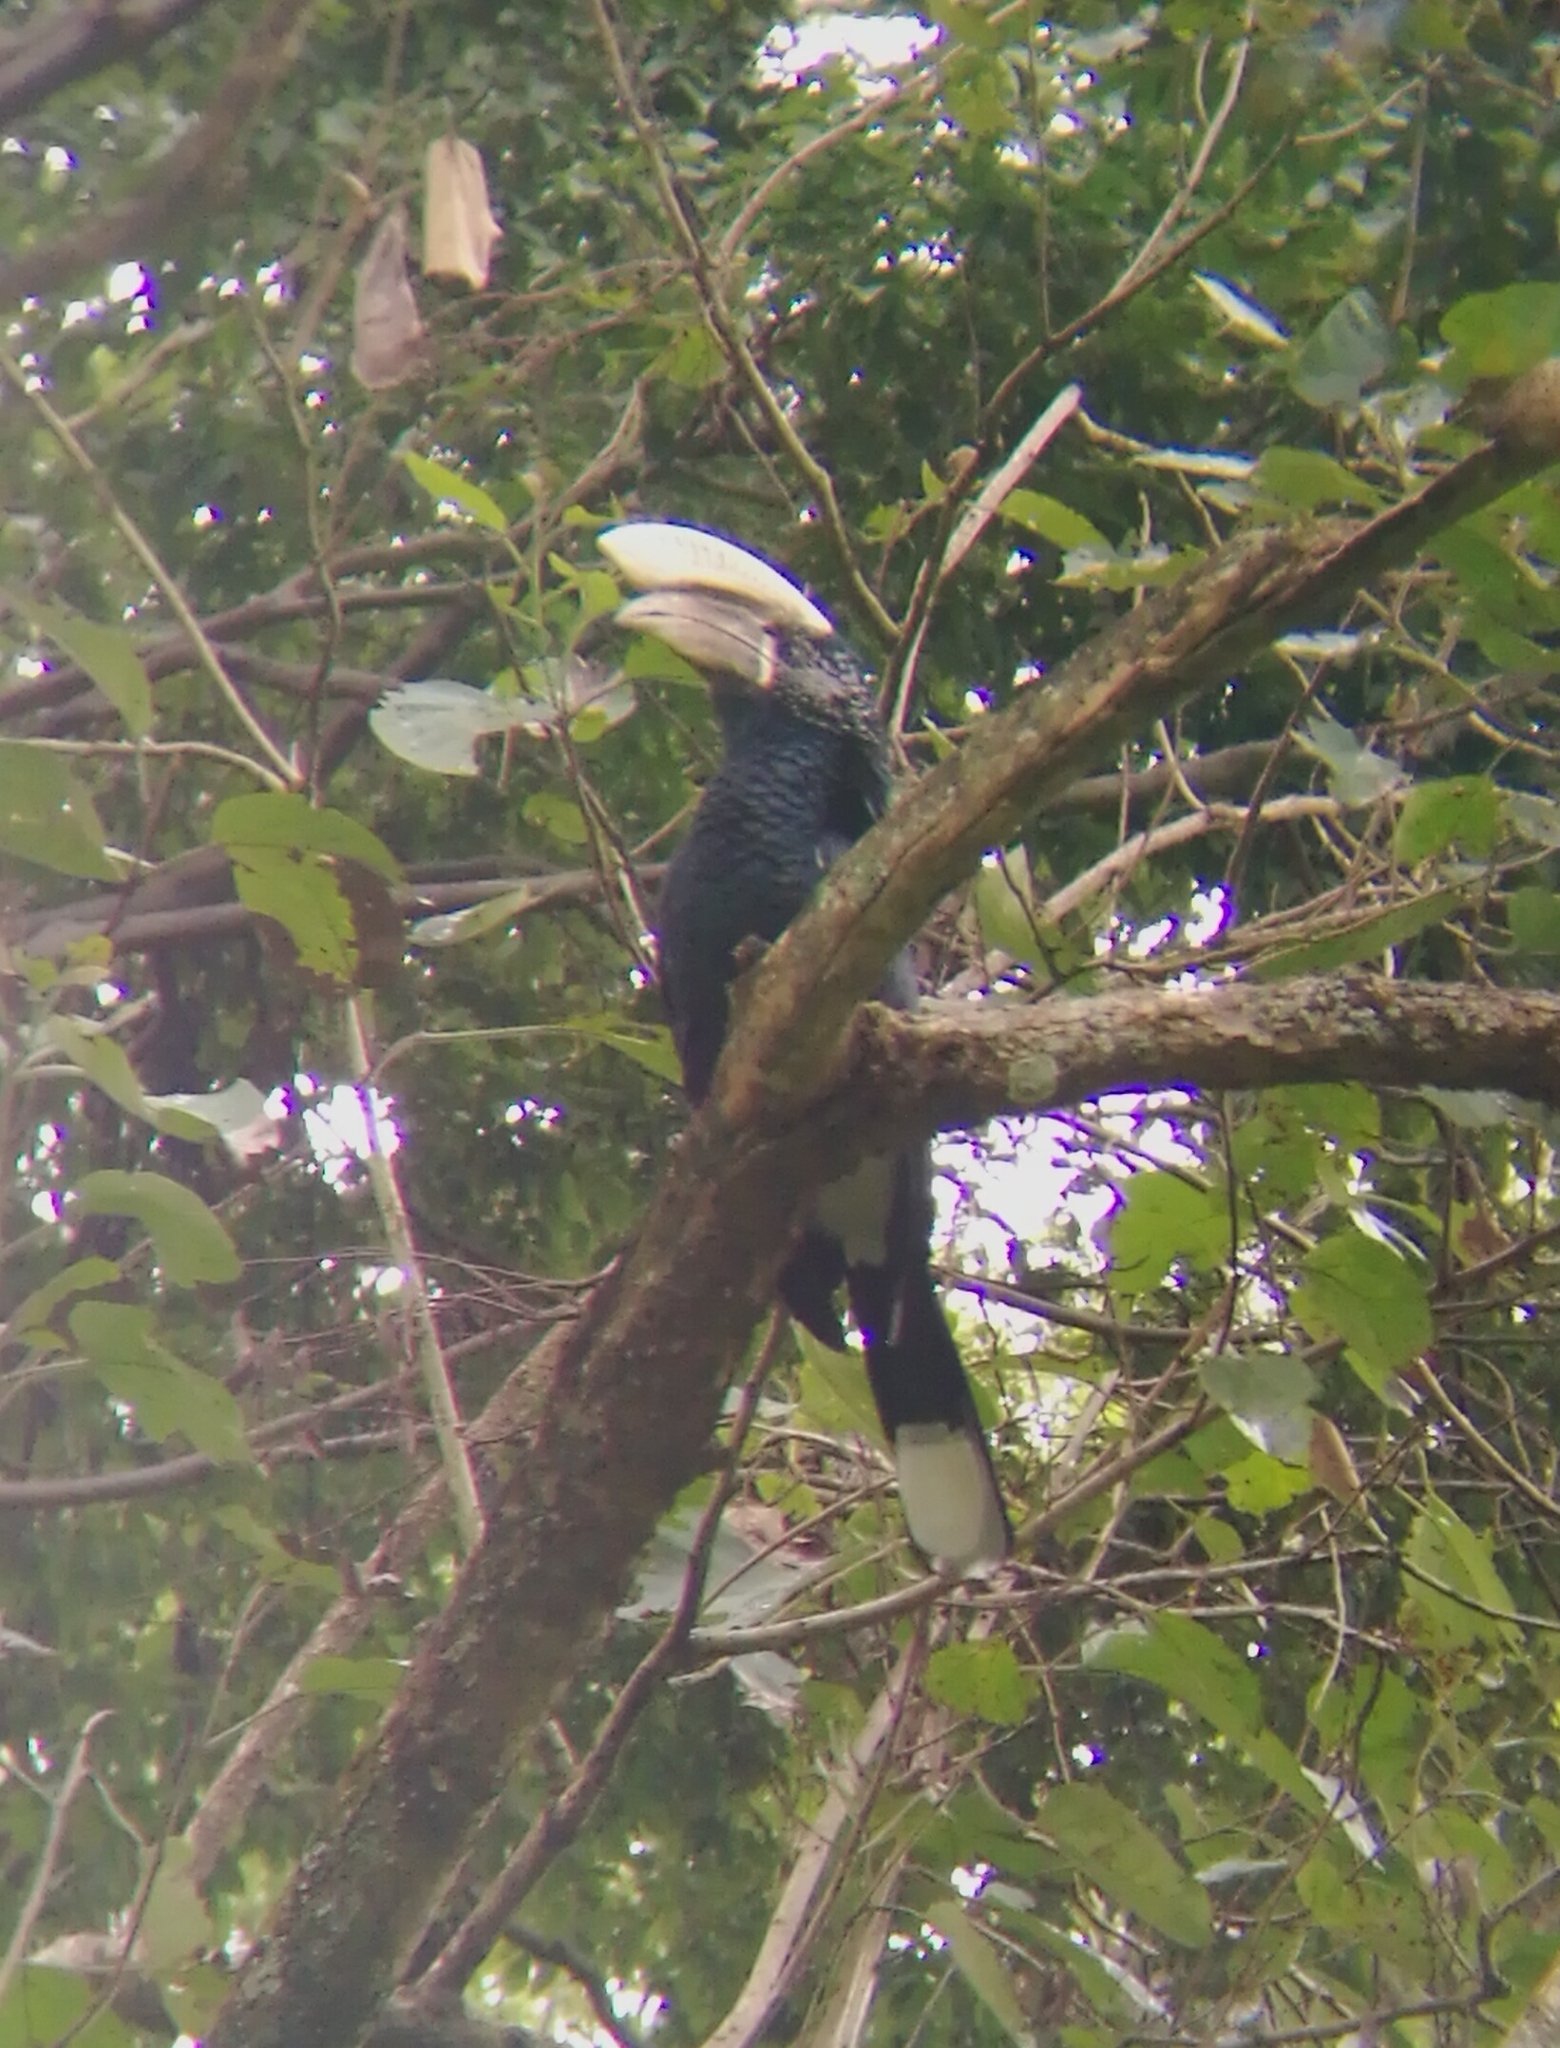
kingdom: Animalia
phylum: Chordata
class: Aves
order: Bucerotiformes
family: Bucerotidae
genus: Bycanistes
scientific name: Bycanistes brevis
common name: Silvery-cheeked hornbill
